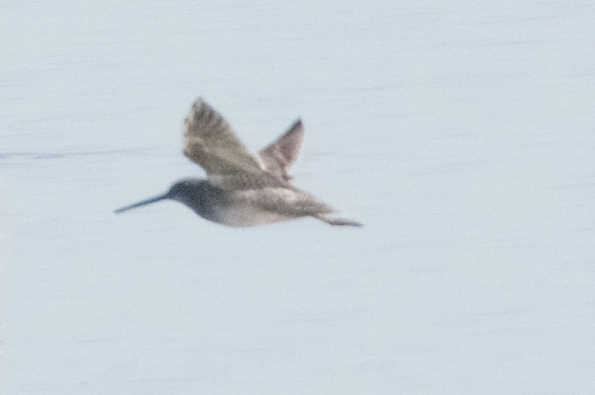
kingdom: Animalia
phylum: Chordata
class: Aves
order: Charadriiformes
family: Scolopacidae
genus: Limnodromus
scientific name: Limnodromus scolopaceus
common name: Long-billed dowitcher
